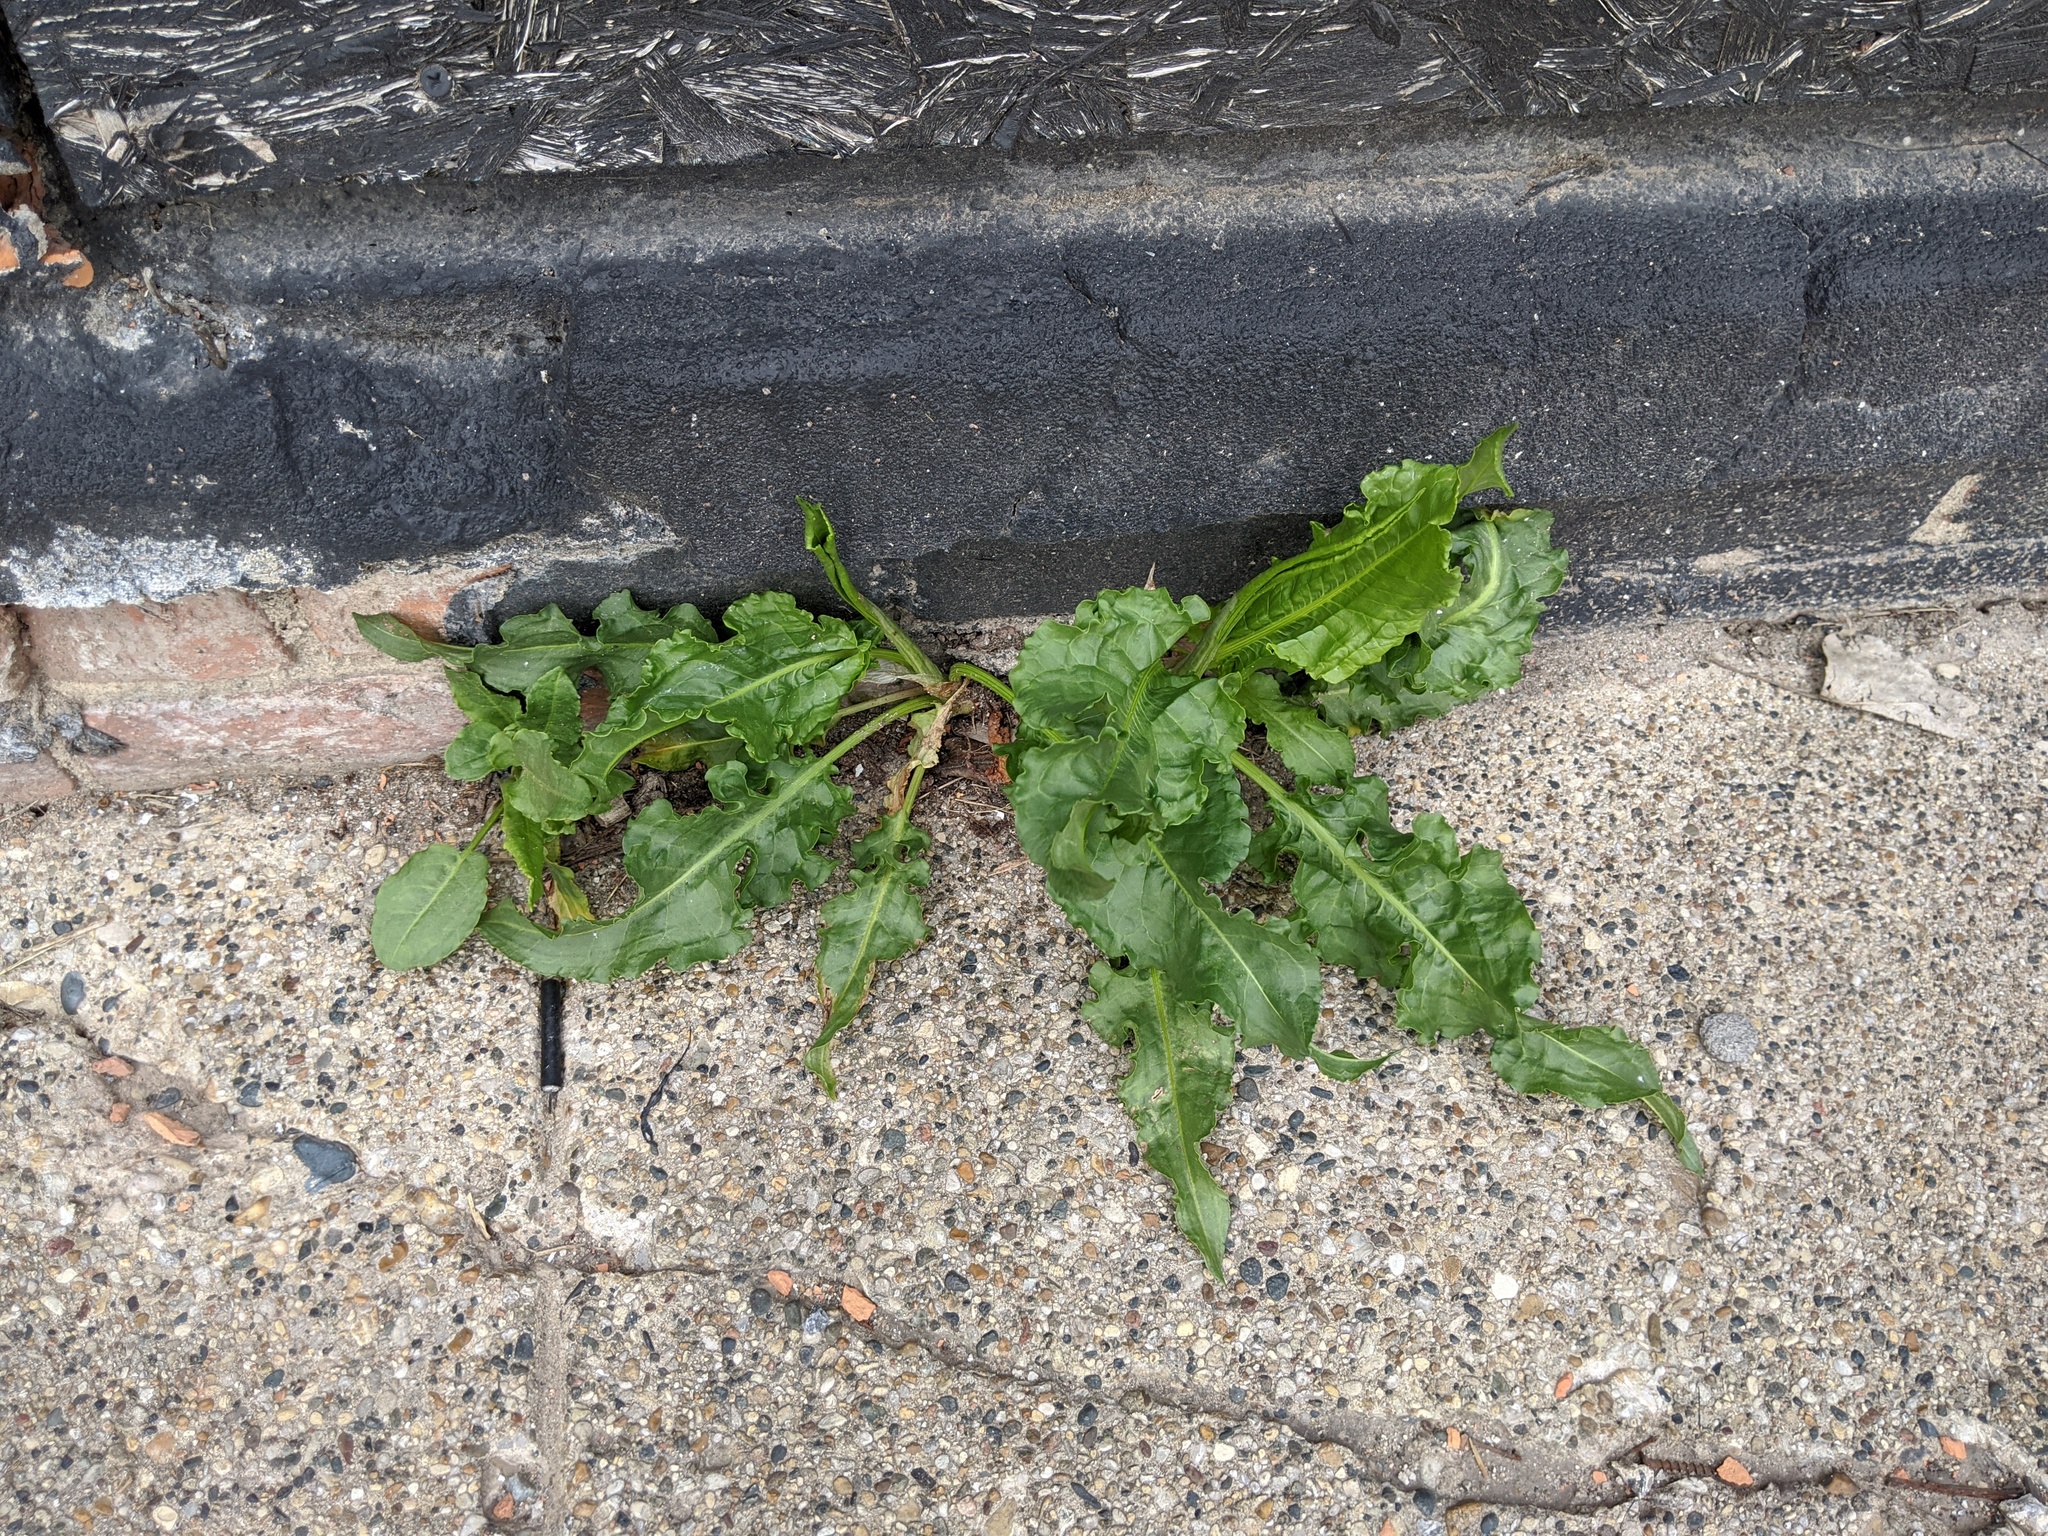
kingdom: Plantae
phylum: Tracheophyta
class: Magnoliopsida
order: Caryophyllales
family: Polygonaceae
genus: Rumex
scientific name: Rumex crispus
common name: Curled dock
